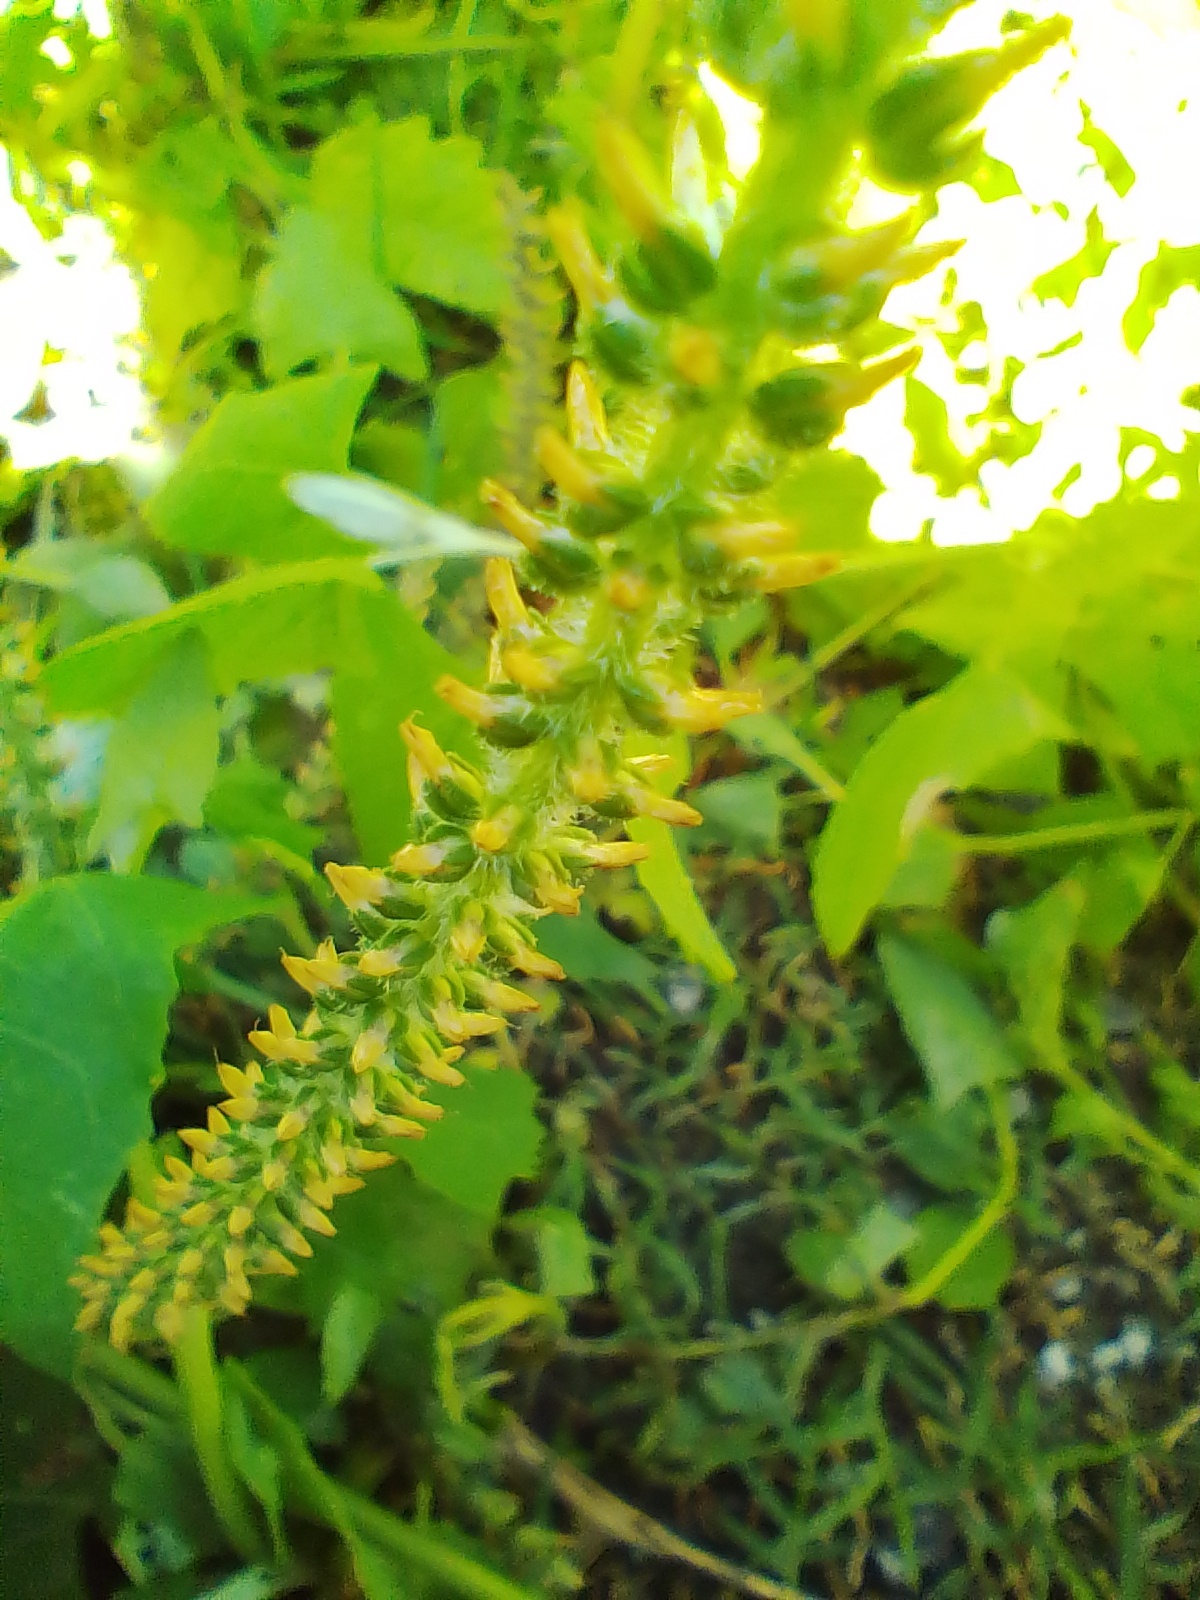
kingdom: Plantae
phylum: Tracheophyta
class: Magnoliopsida
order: Lamiales
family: Plantaginaceae
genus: Plantago
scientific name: Plantago australis
